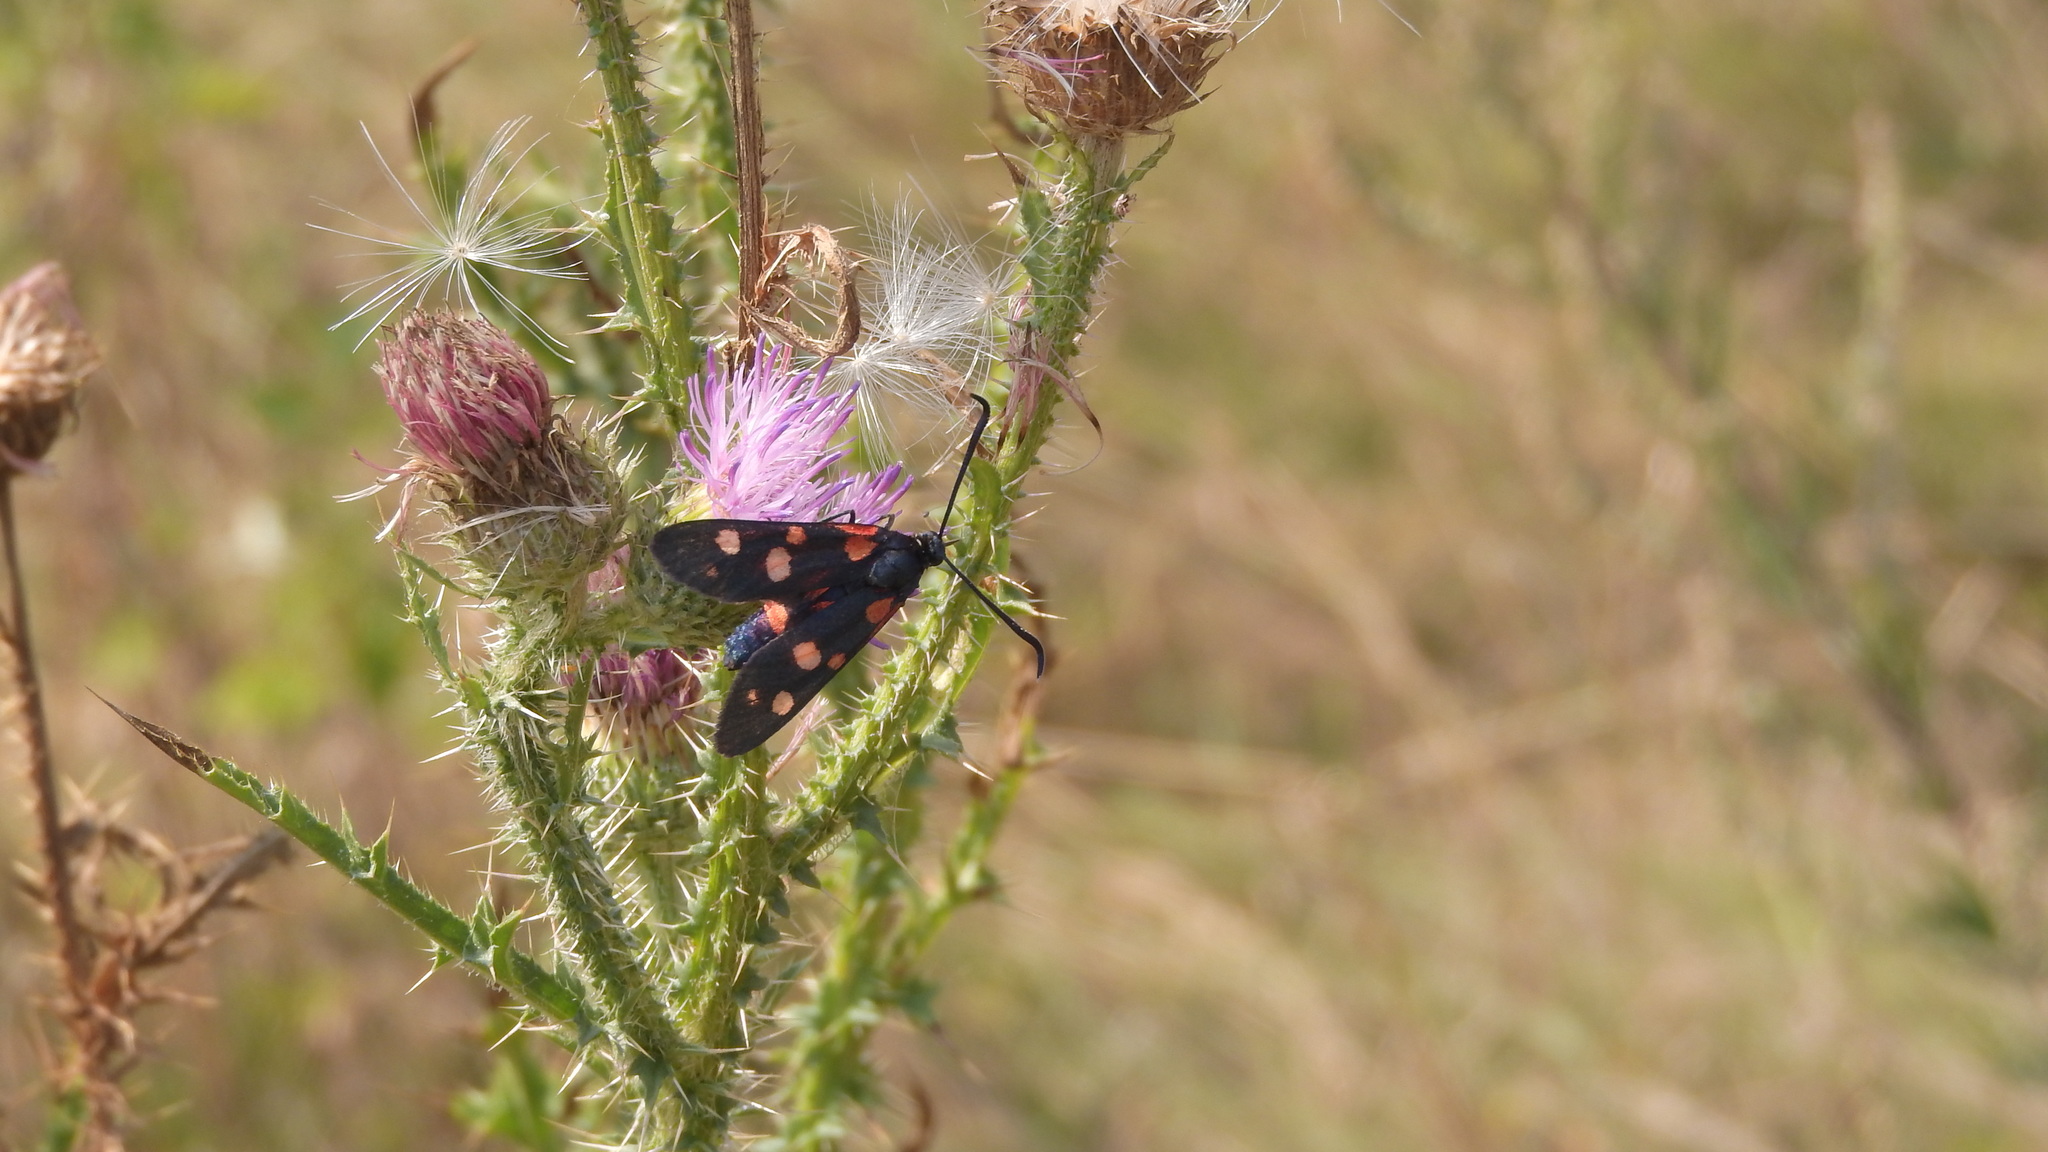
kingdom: Animalia
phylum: Arthropoda
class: Insecta
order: Lepidoptera
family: Zygaenidae
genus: Zygaena
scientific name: Zygaena ephialtes
